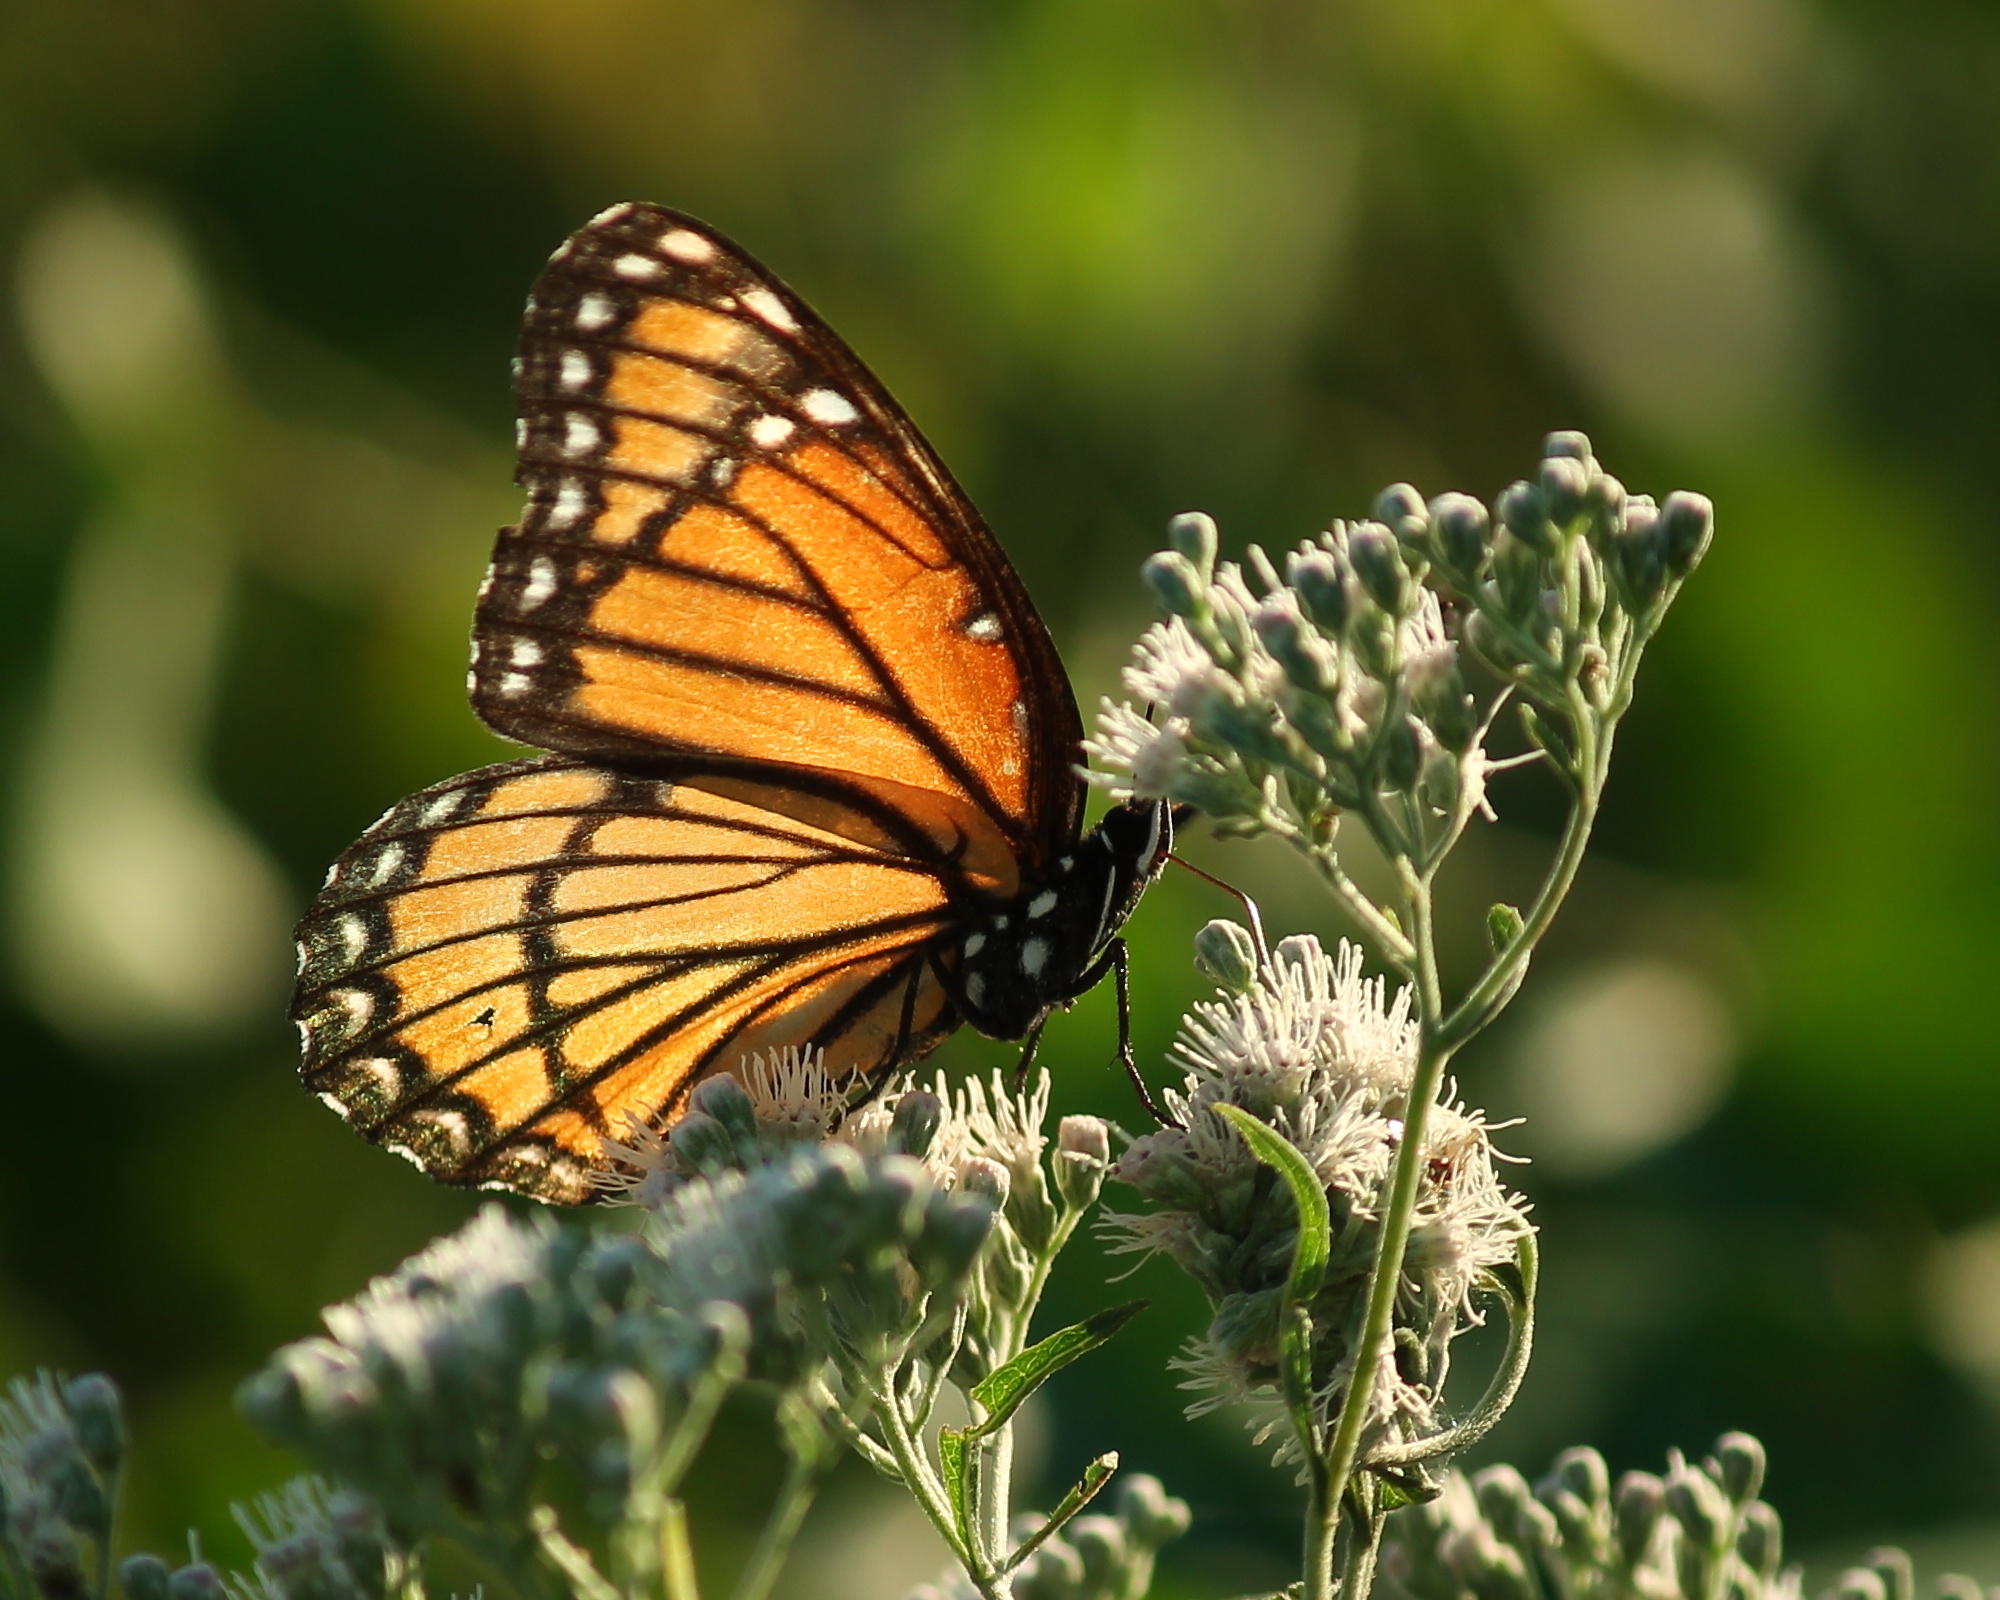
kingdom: Animalia
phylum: Arthropoda
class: Insecta
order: Lepidoptera
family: Nymphalidae
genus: Limenitis
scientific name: Limenitis archippus
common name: Viceroy
